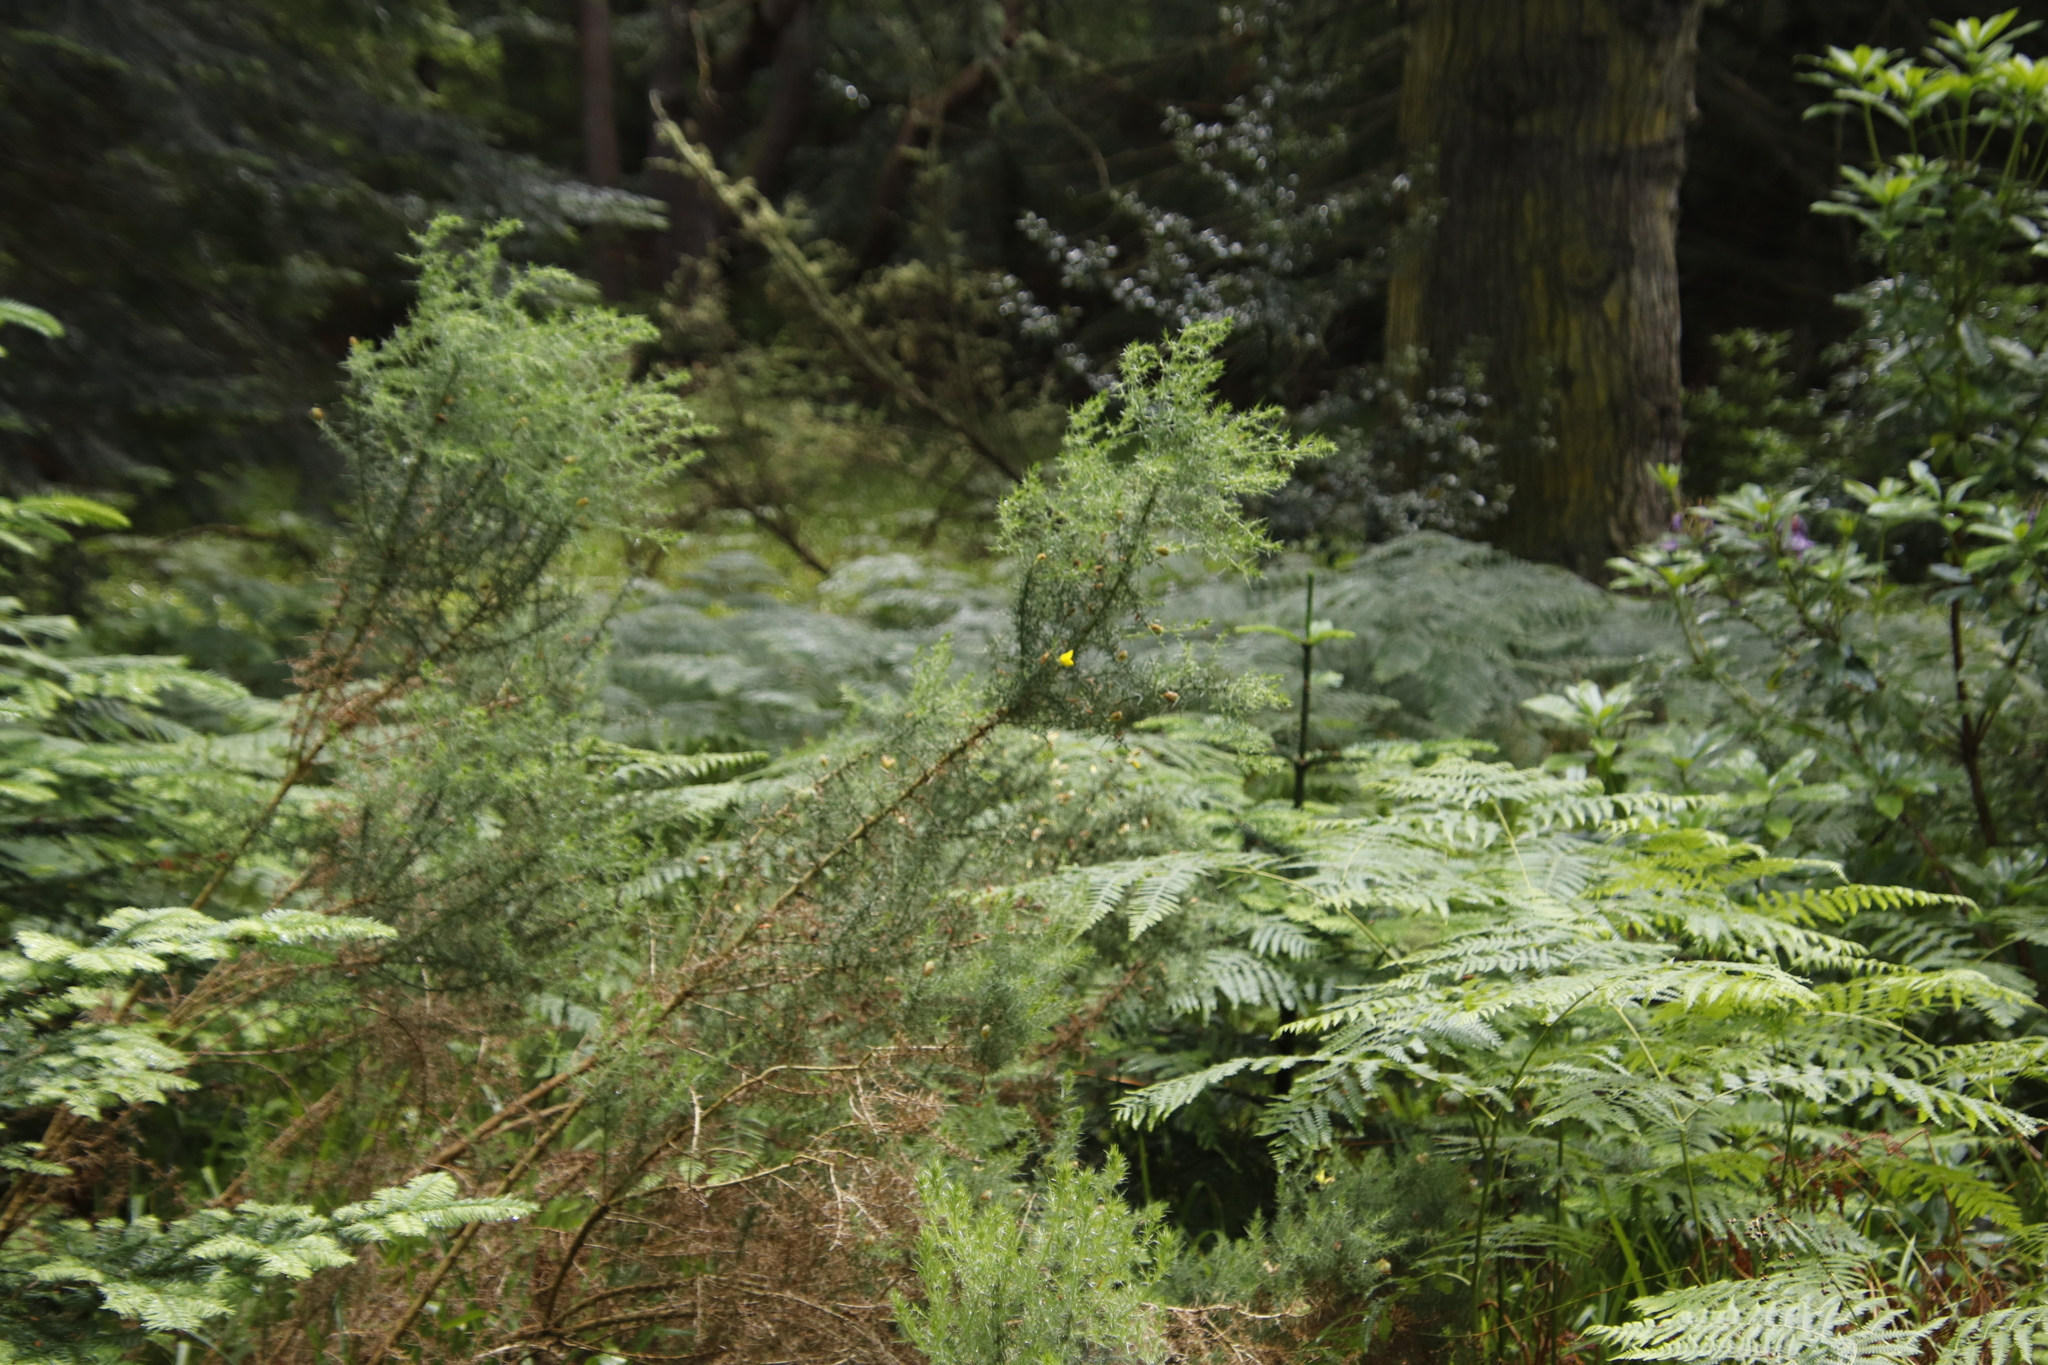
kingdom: Plantae
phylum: Tracheophyta
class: Magnoliopsida
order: Fabales
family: Fabaceae
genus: Ulex
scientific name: Ulex europaeus
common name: Common gorse
